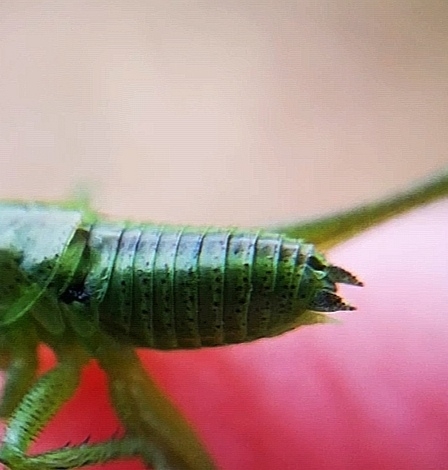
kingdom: Animalia
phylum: Arthropoda
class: Insecta
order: Orthoptera
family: Tettigoniidae
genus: Tettigonia
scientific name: Tettigonia cantans
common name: Upland green bush-cricket
